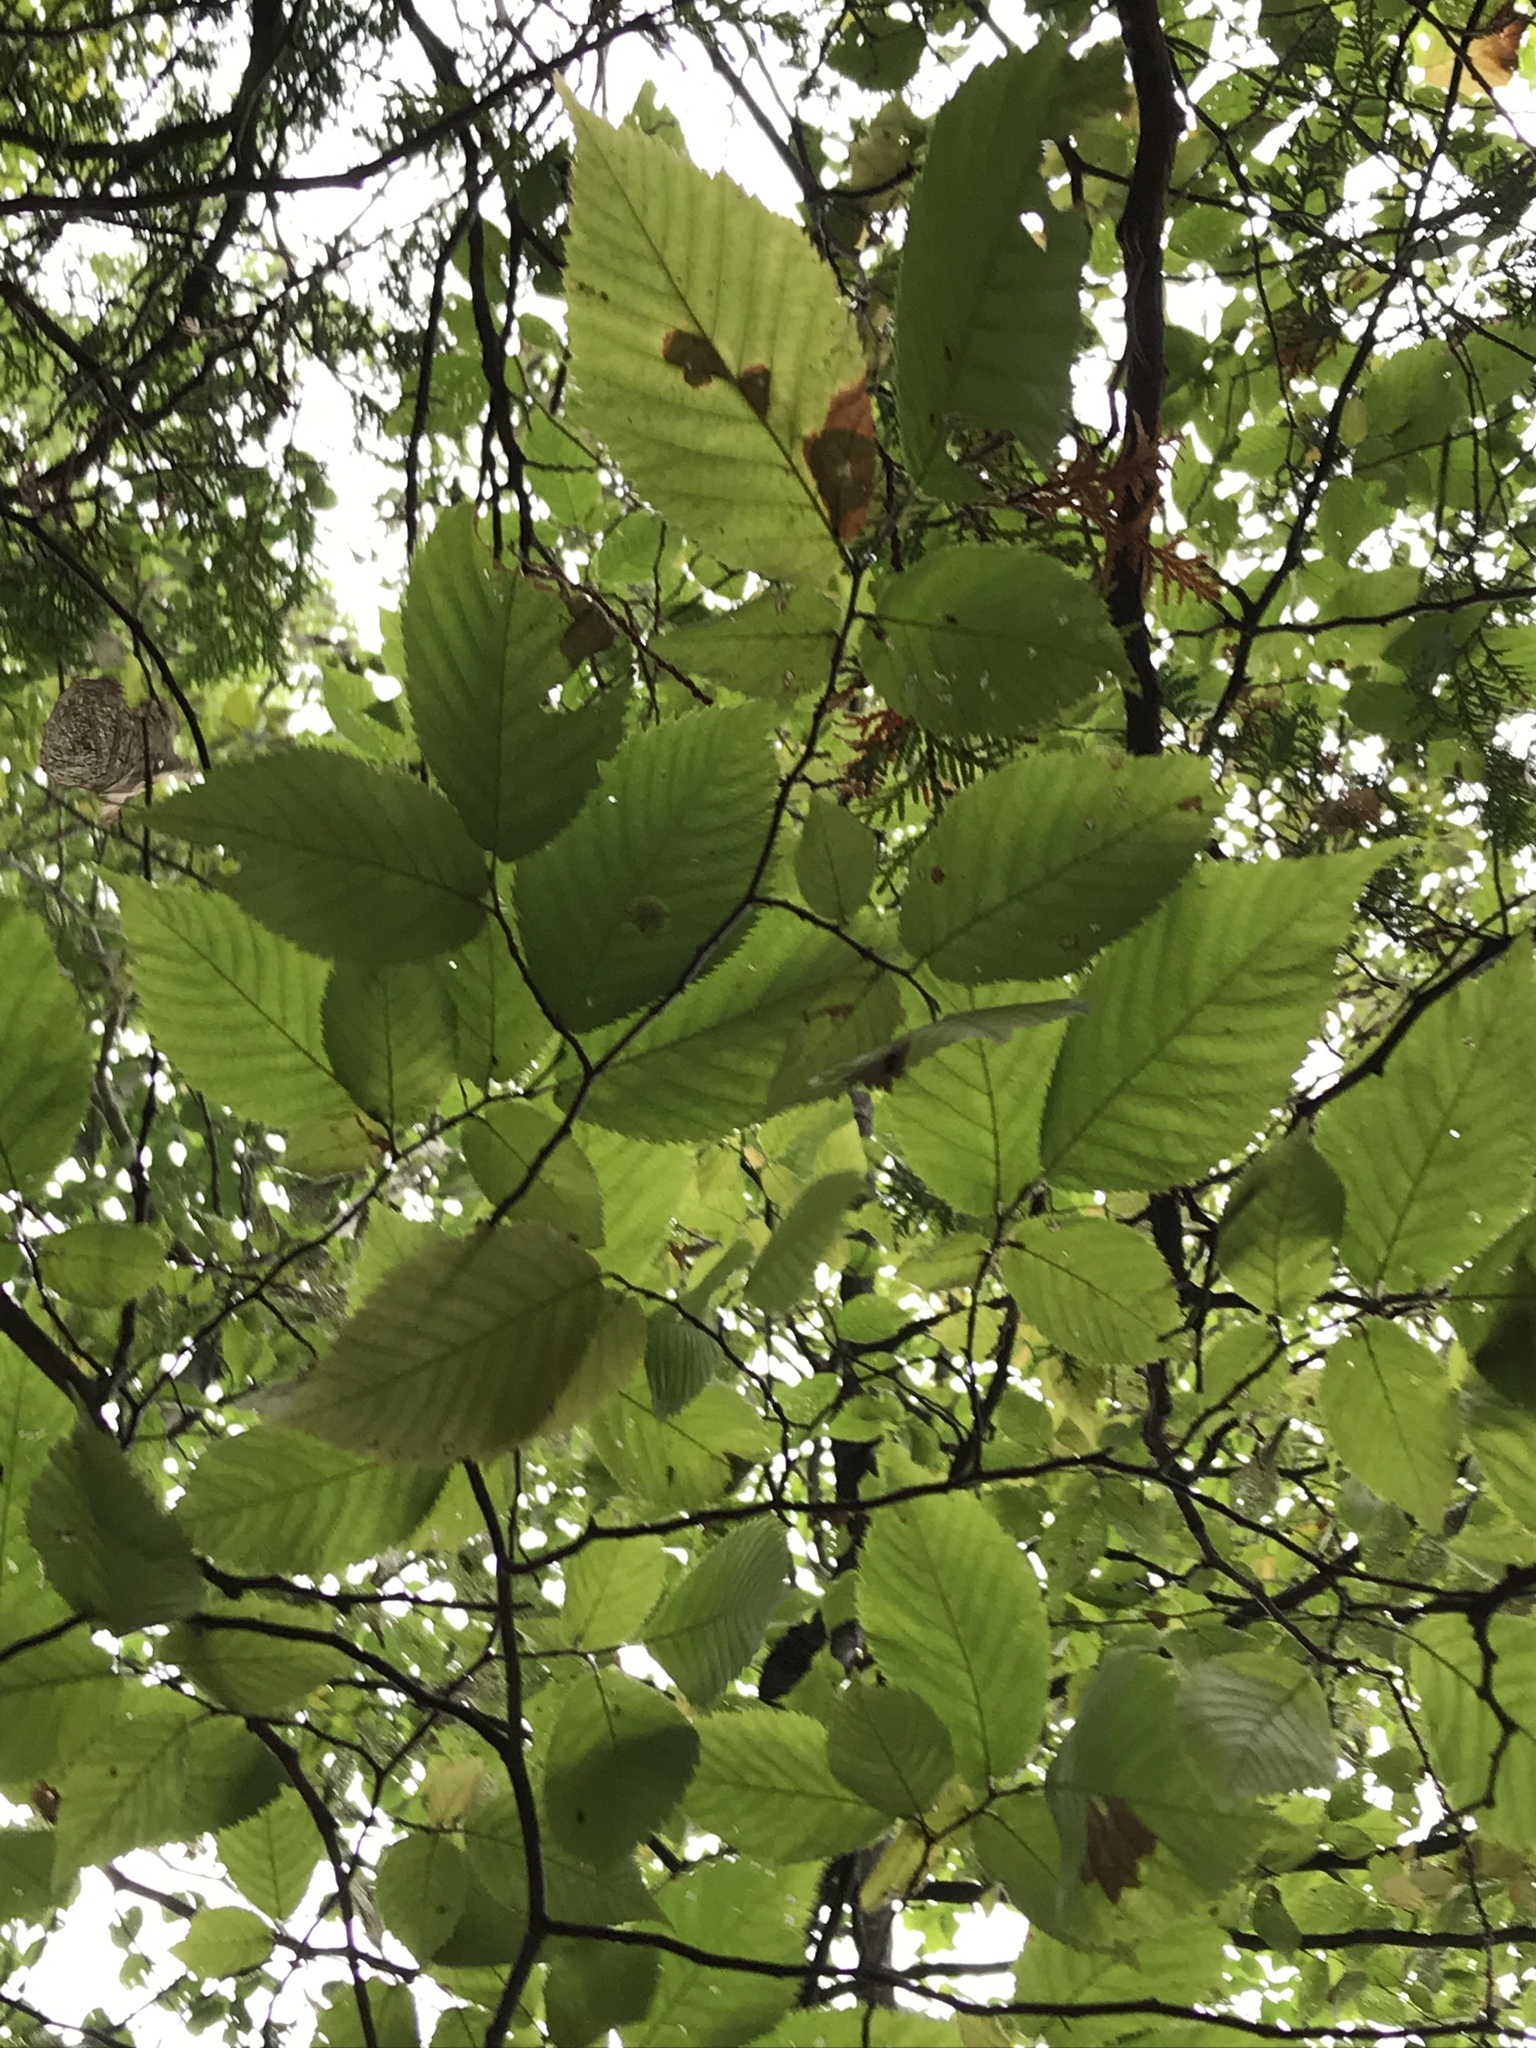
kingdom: Plantae
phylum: Tracheophyta
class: Magnoliopsida
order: Fagales
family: Betulaceae
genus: Ostrya
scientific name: Ostrya virginiana
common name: Ironwood
